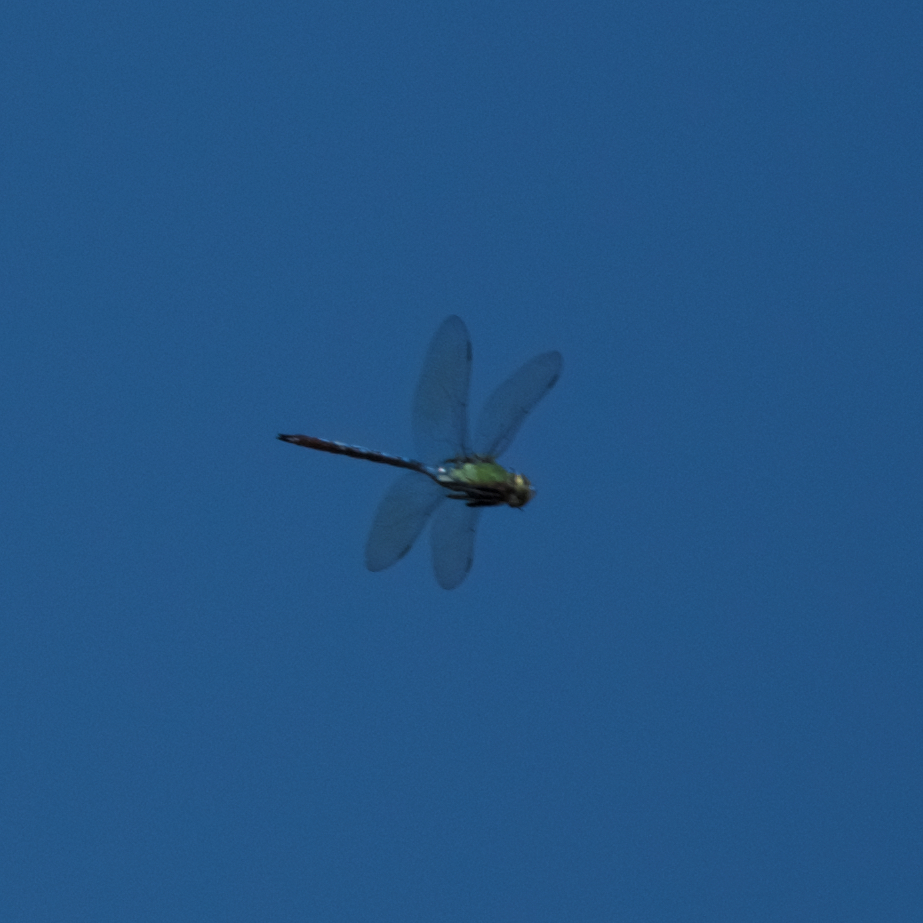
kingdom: Animalia
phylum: Arthropoda
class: Insecta
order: Odonata
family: Aeshnidae
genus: Anax
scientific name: Anax junius
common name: Common green darner
